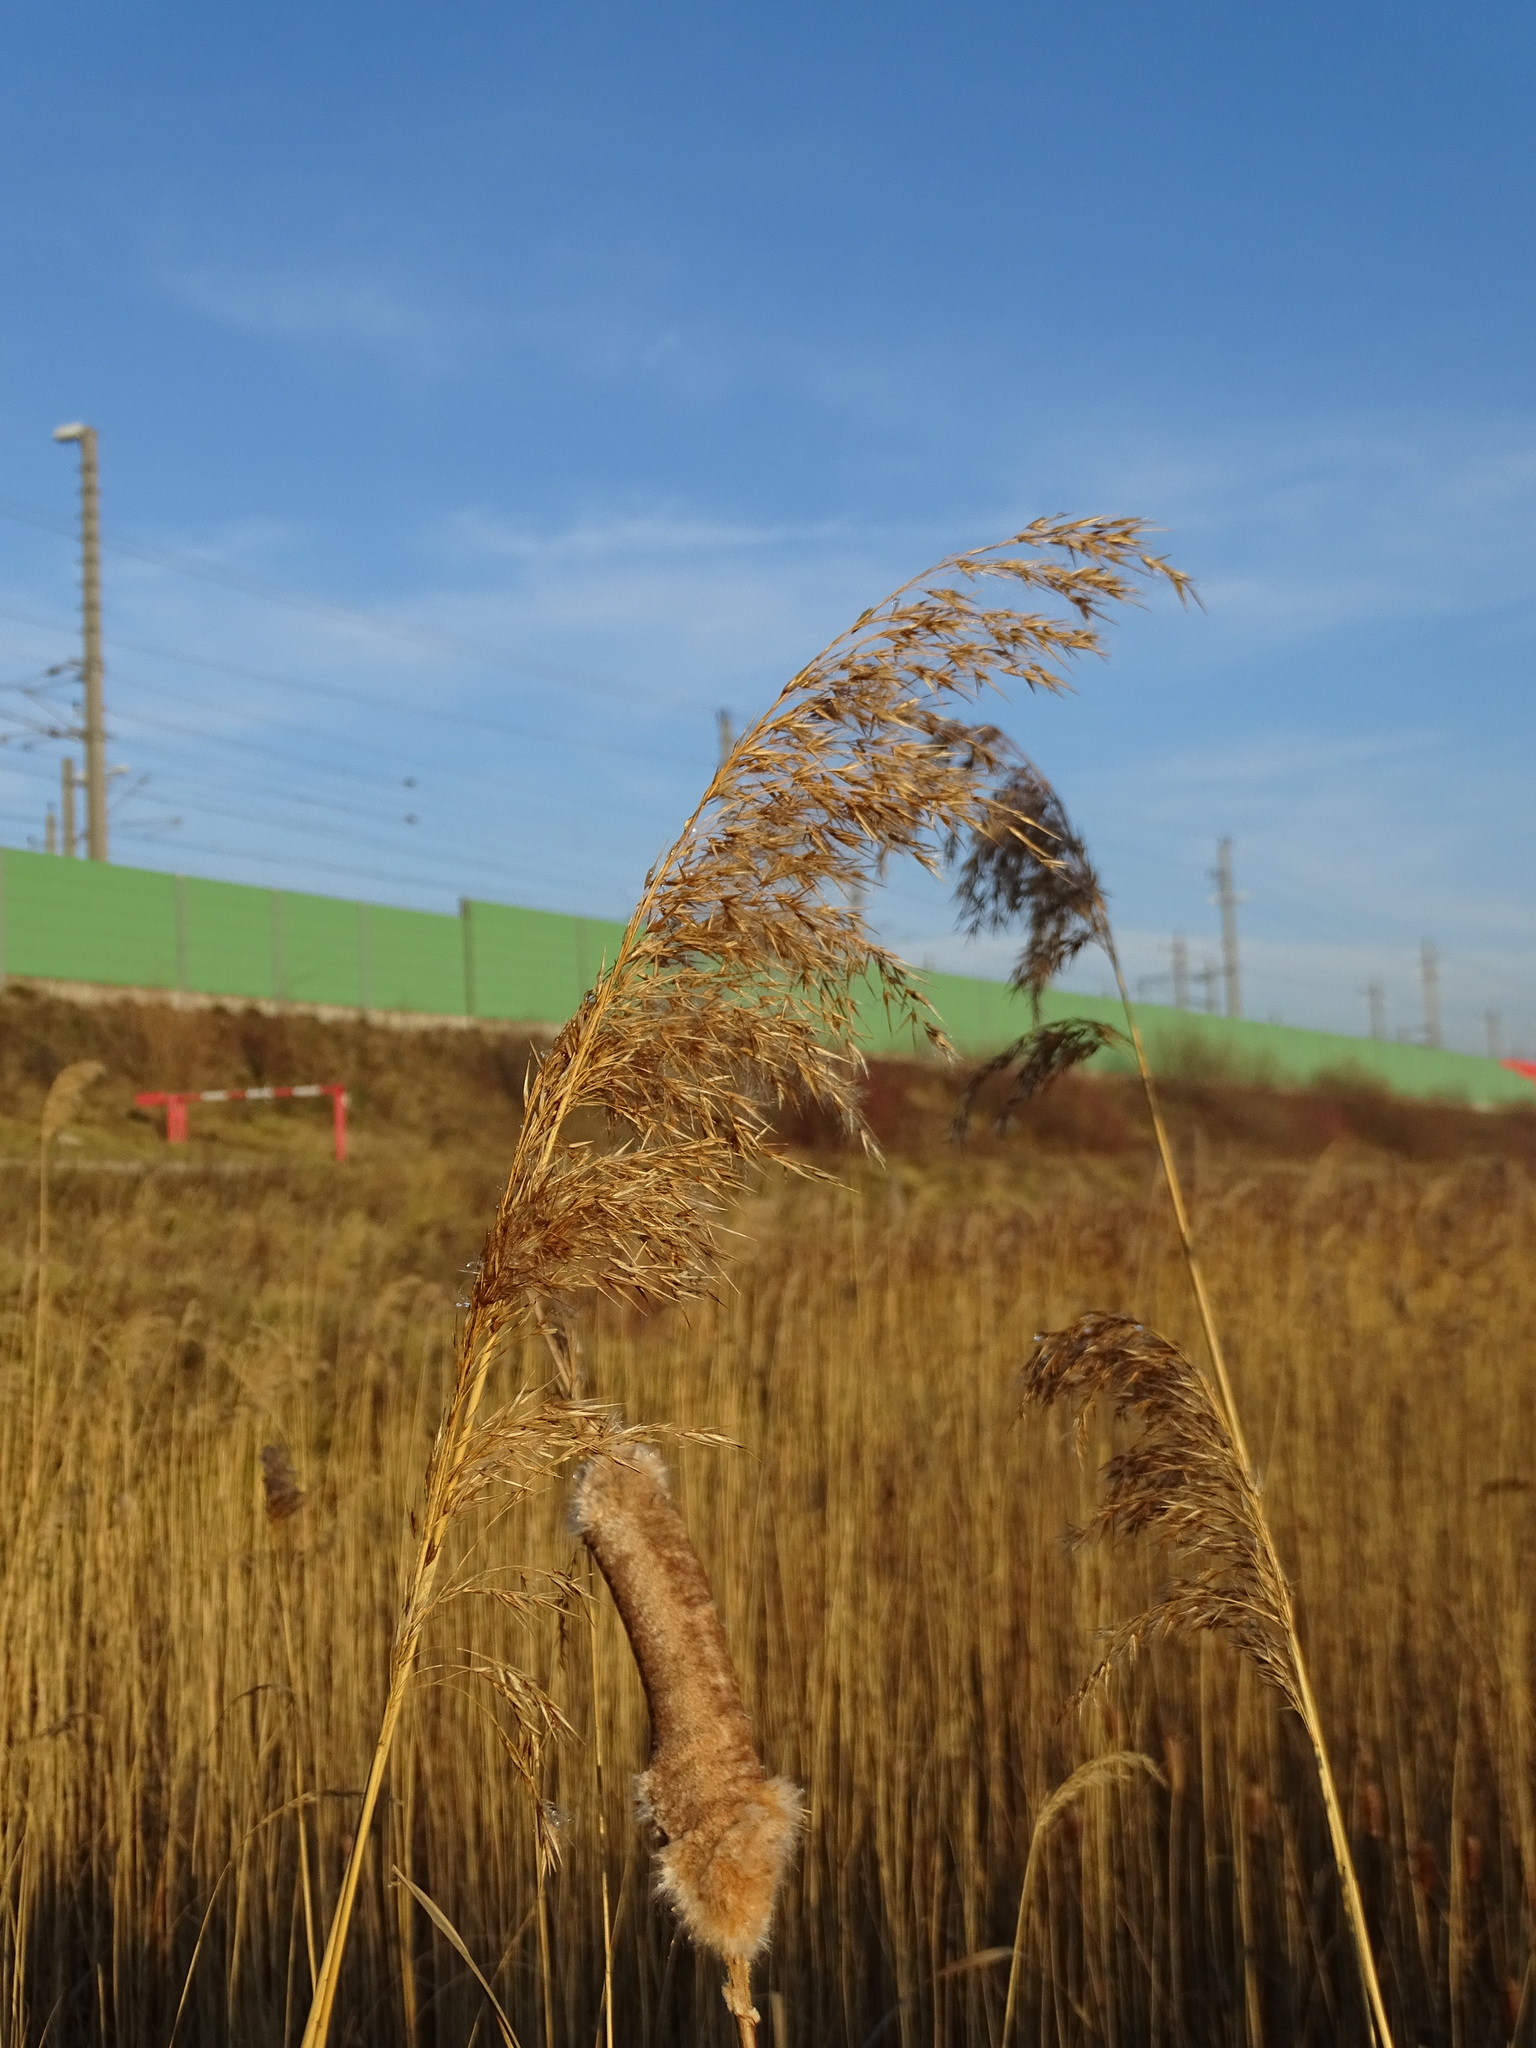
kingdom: Plantae
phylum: Tracheophyta
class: Liliopsida
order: Poales
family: Poaceae
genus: Phragmites
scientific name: Phragmites australis
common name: Common reed
